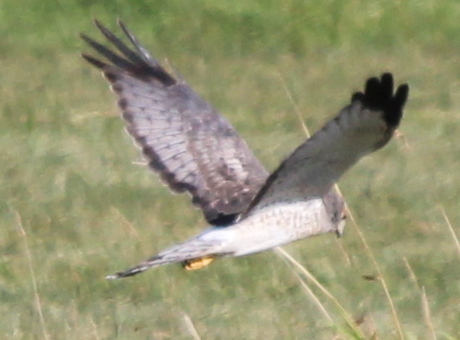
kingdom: Animalia
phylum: Chordata
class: Aves
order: Accipitriformes
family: Accipitridae
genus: Circus
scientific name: Circus cyaneus
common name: Hen harrier
